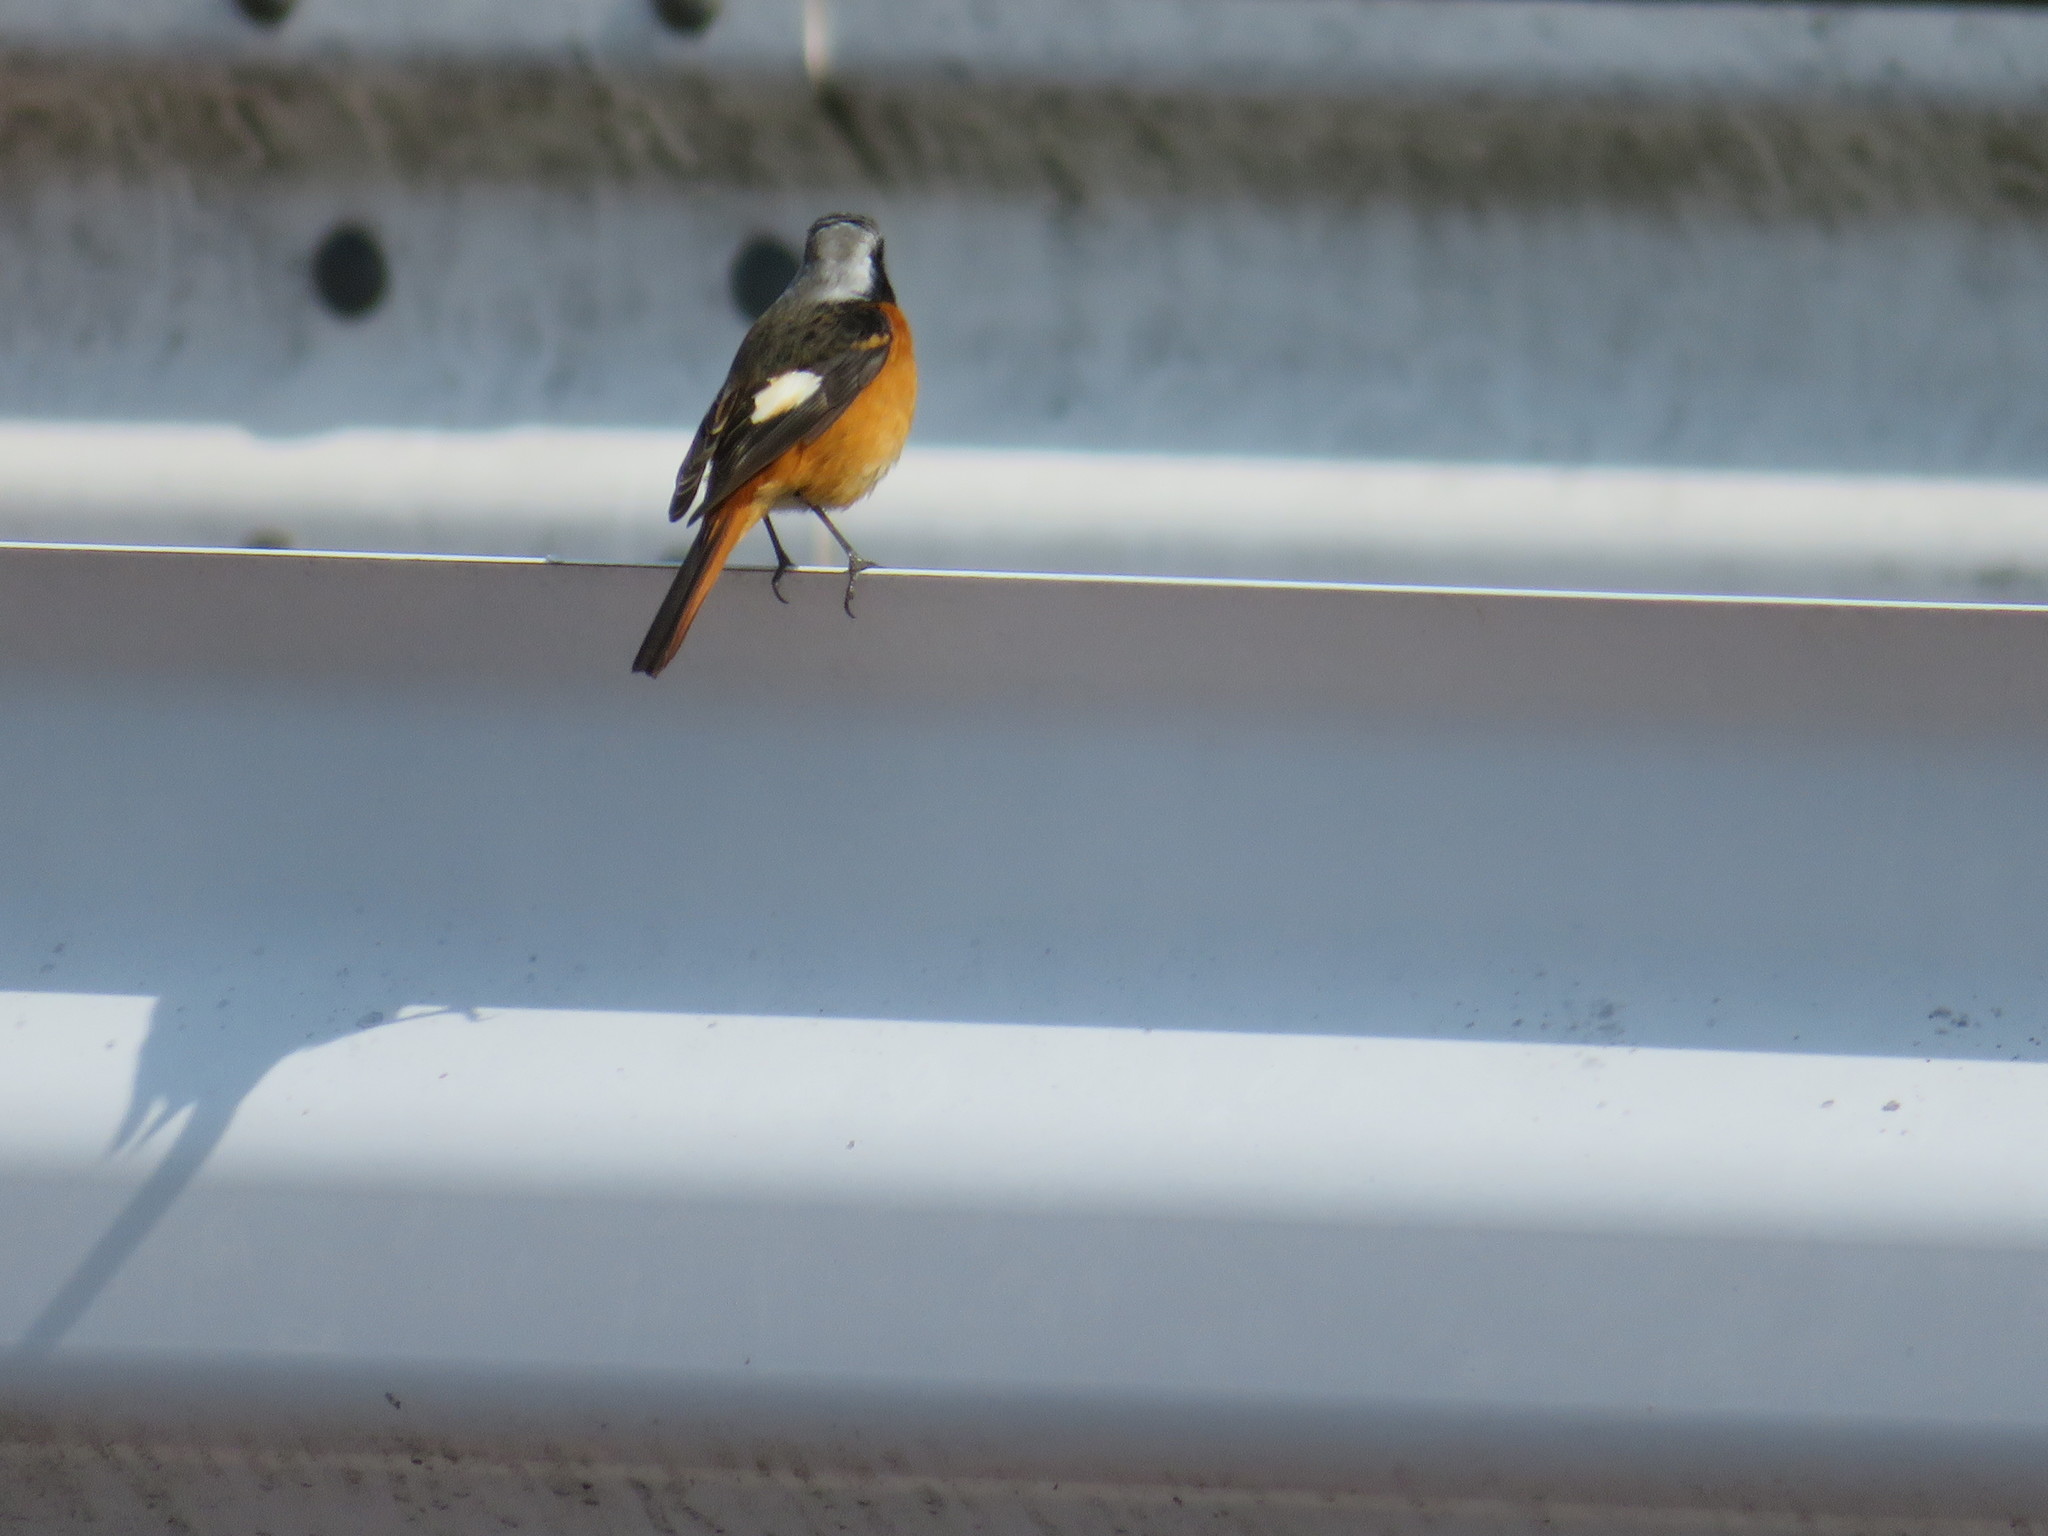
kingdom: Animalia
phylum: Chordata
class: Aves
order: Passeriformes
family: Muscicapidae
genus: Phoenicurus
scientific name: Phoenicurus auroreus
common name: Daurian redstart
